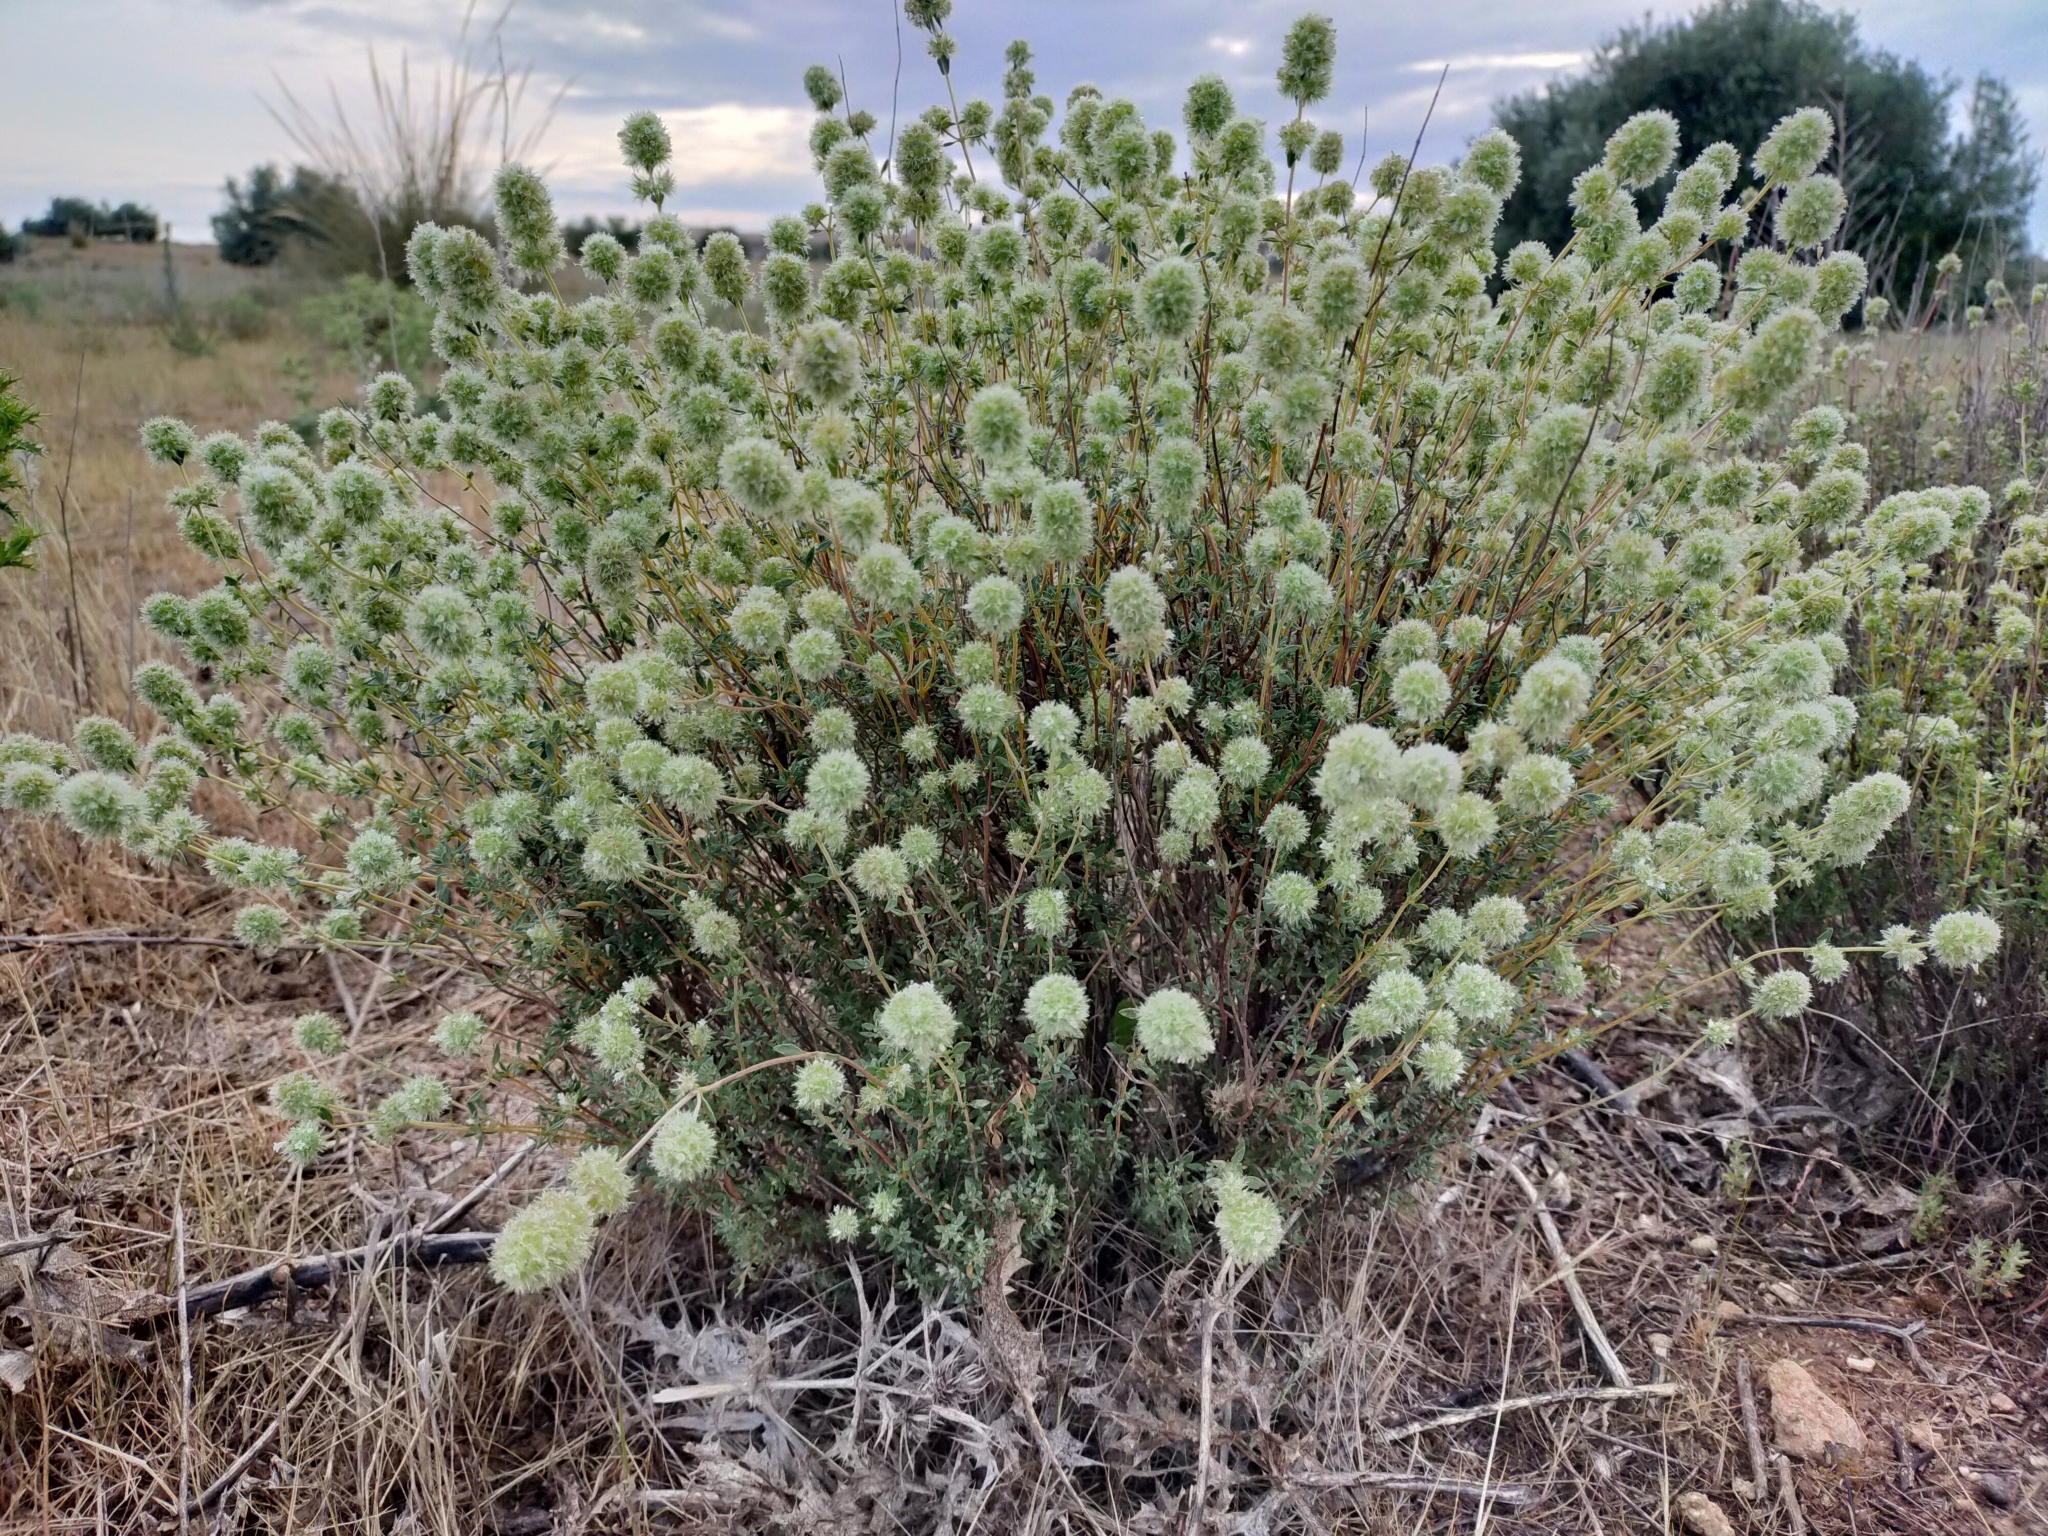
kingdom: Plantae
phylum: Tracheophyta
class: Magnoliopsida
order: Lamiales
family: Lamiaceae
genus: Thymus
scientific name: Thymus mastichina
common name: Mastic thyme
